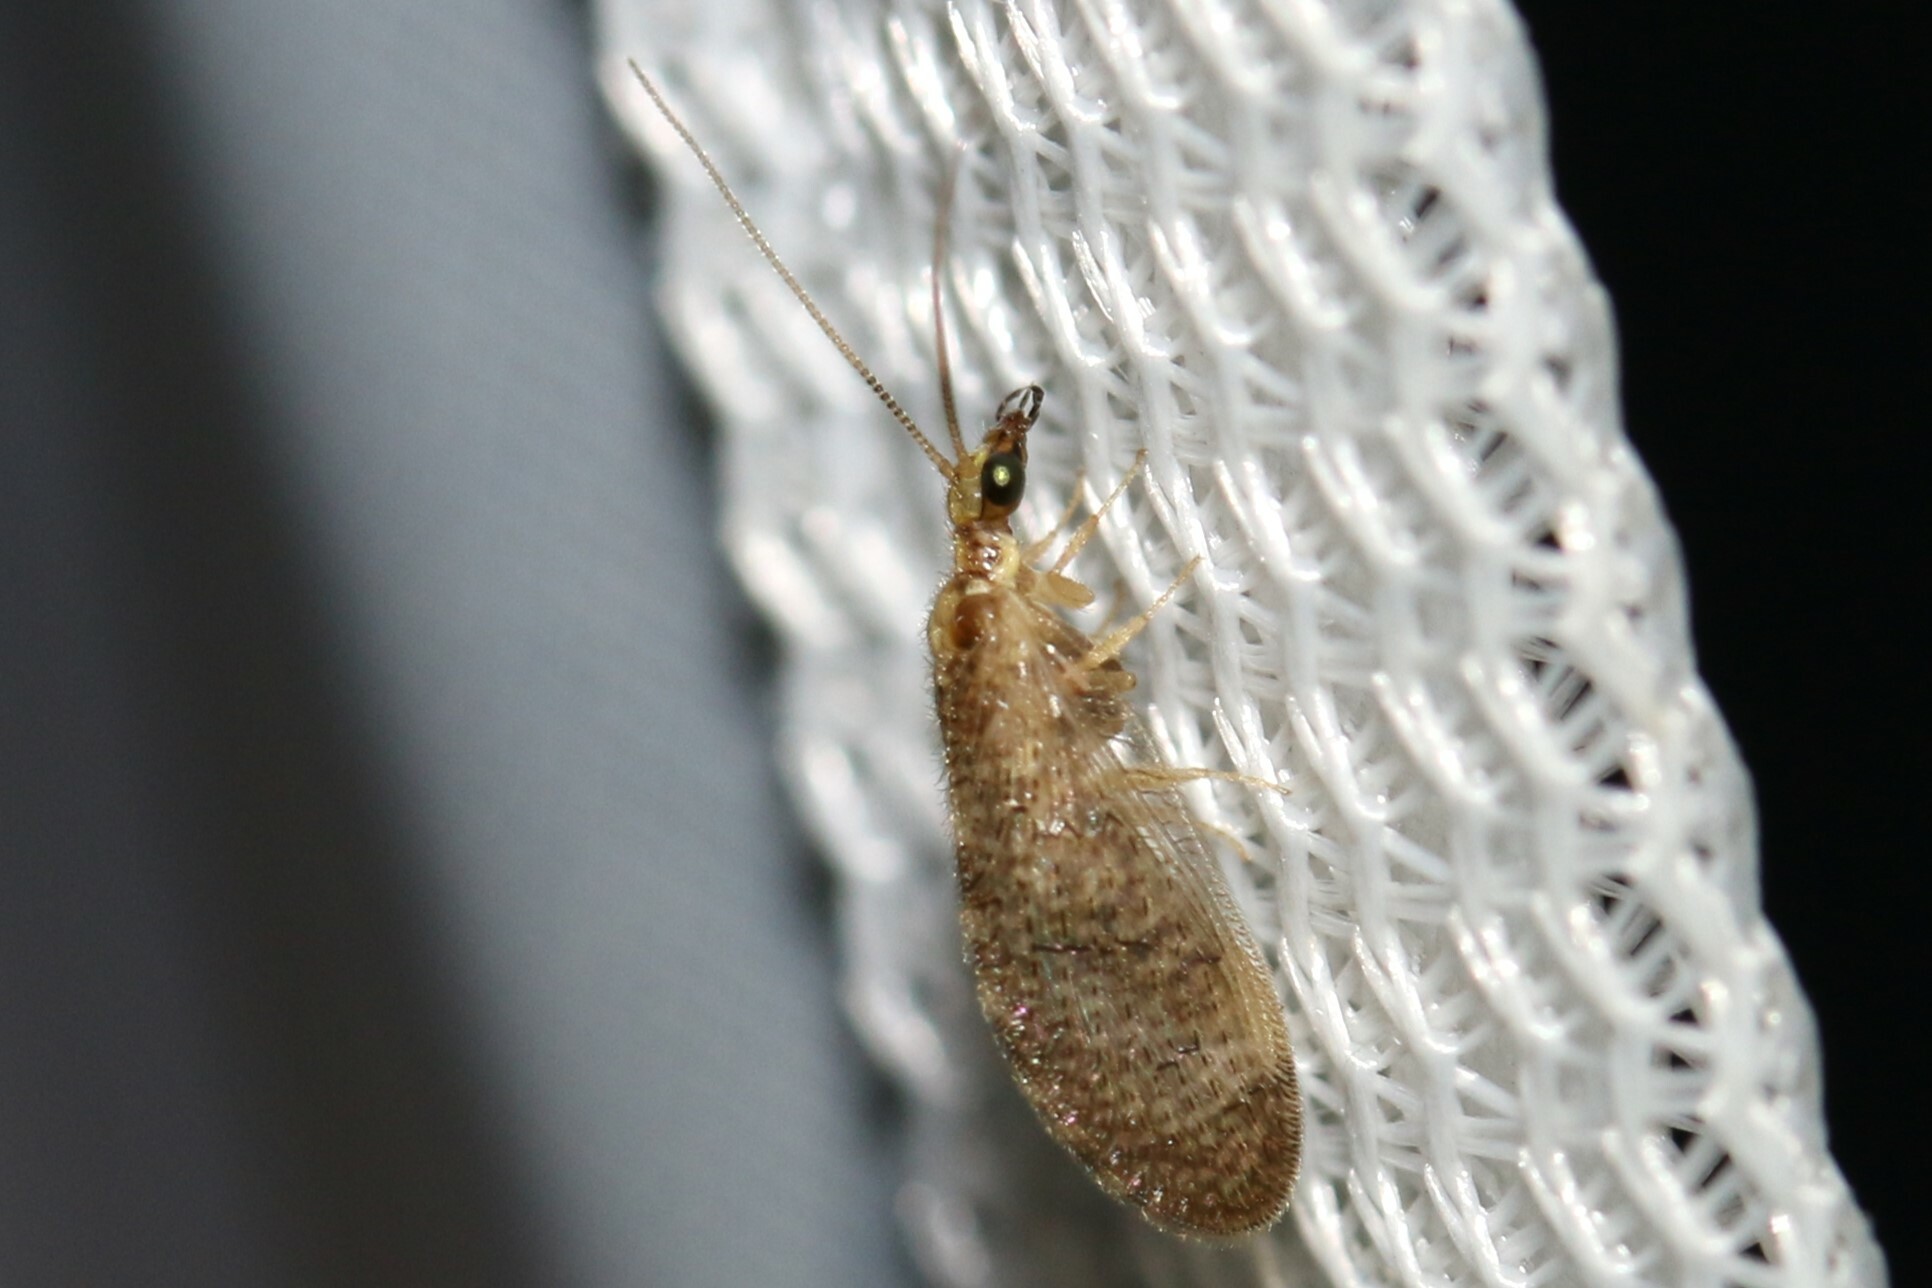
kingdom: Animalia
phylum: Arthropoda
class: Insecta
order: Neuroptera
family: Hemerobiidae
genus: Sympherobius
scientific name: Sympherobius pygmaeus
